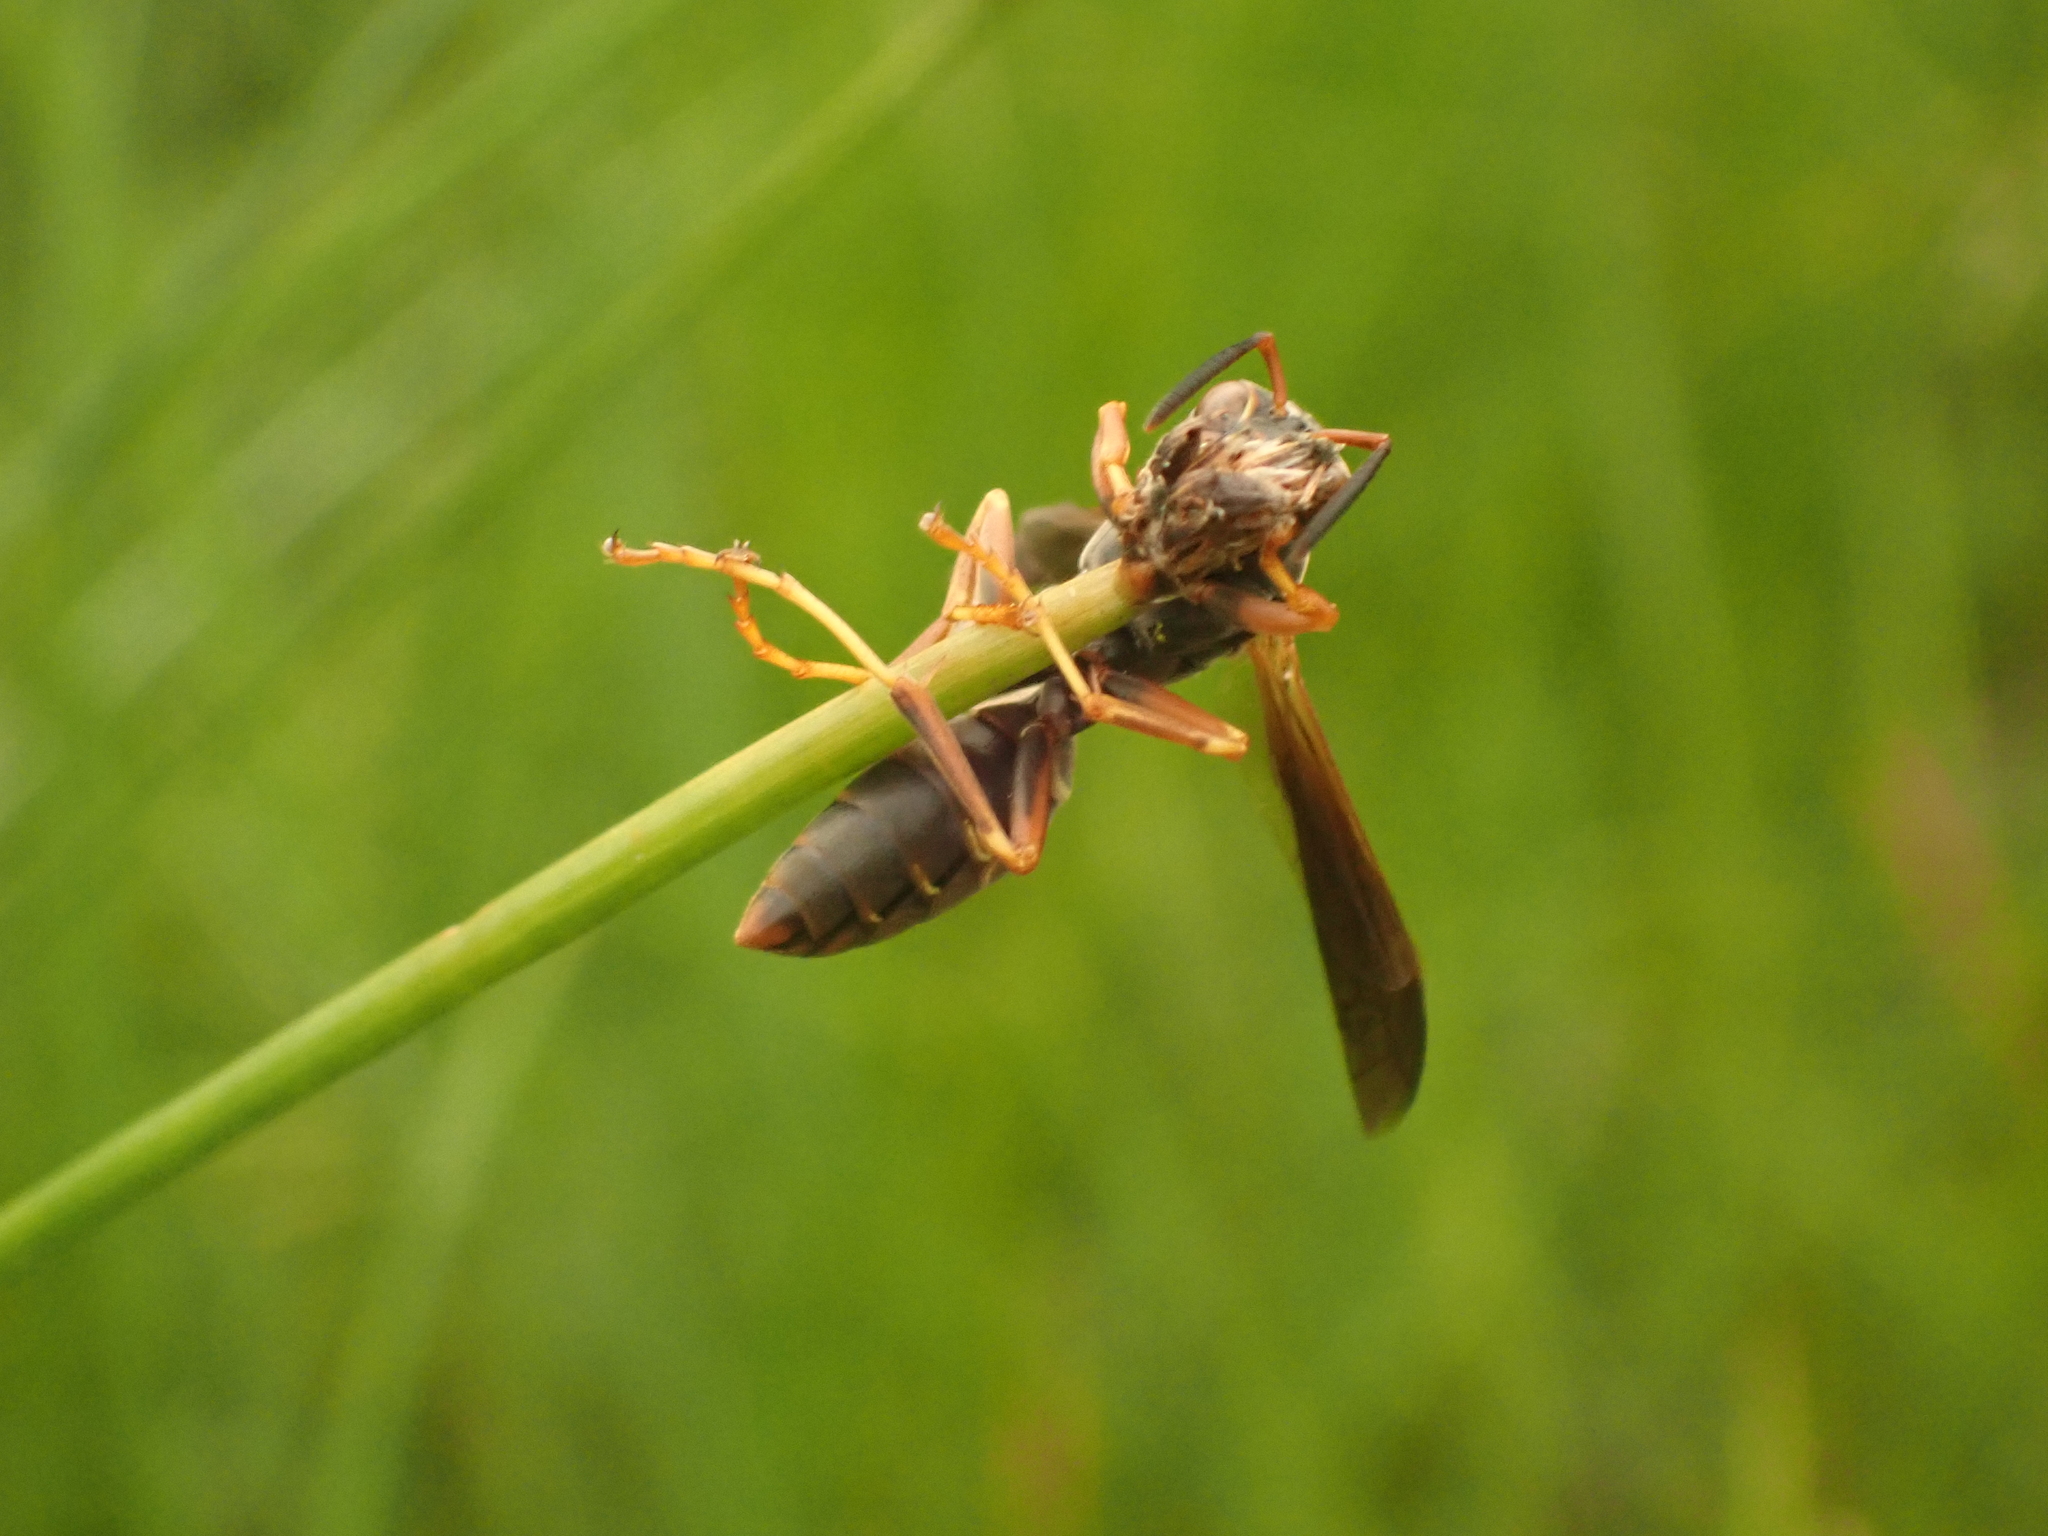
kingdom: Animalia
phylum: Arthropoda
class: Insecta
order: Hymenoptera
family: Eumenidae
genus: Polistes
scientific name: Polistes fuscatus
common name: Dark paper wasp
